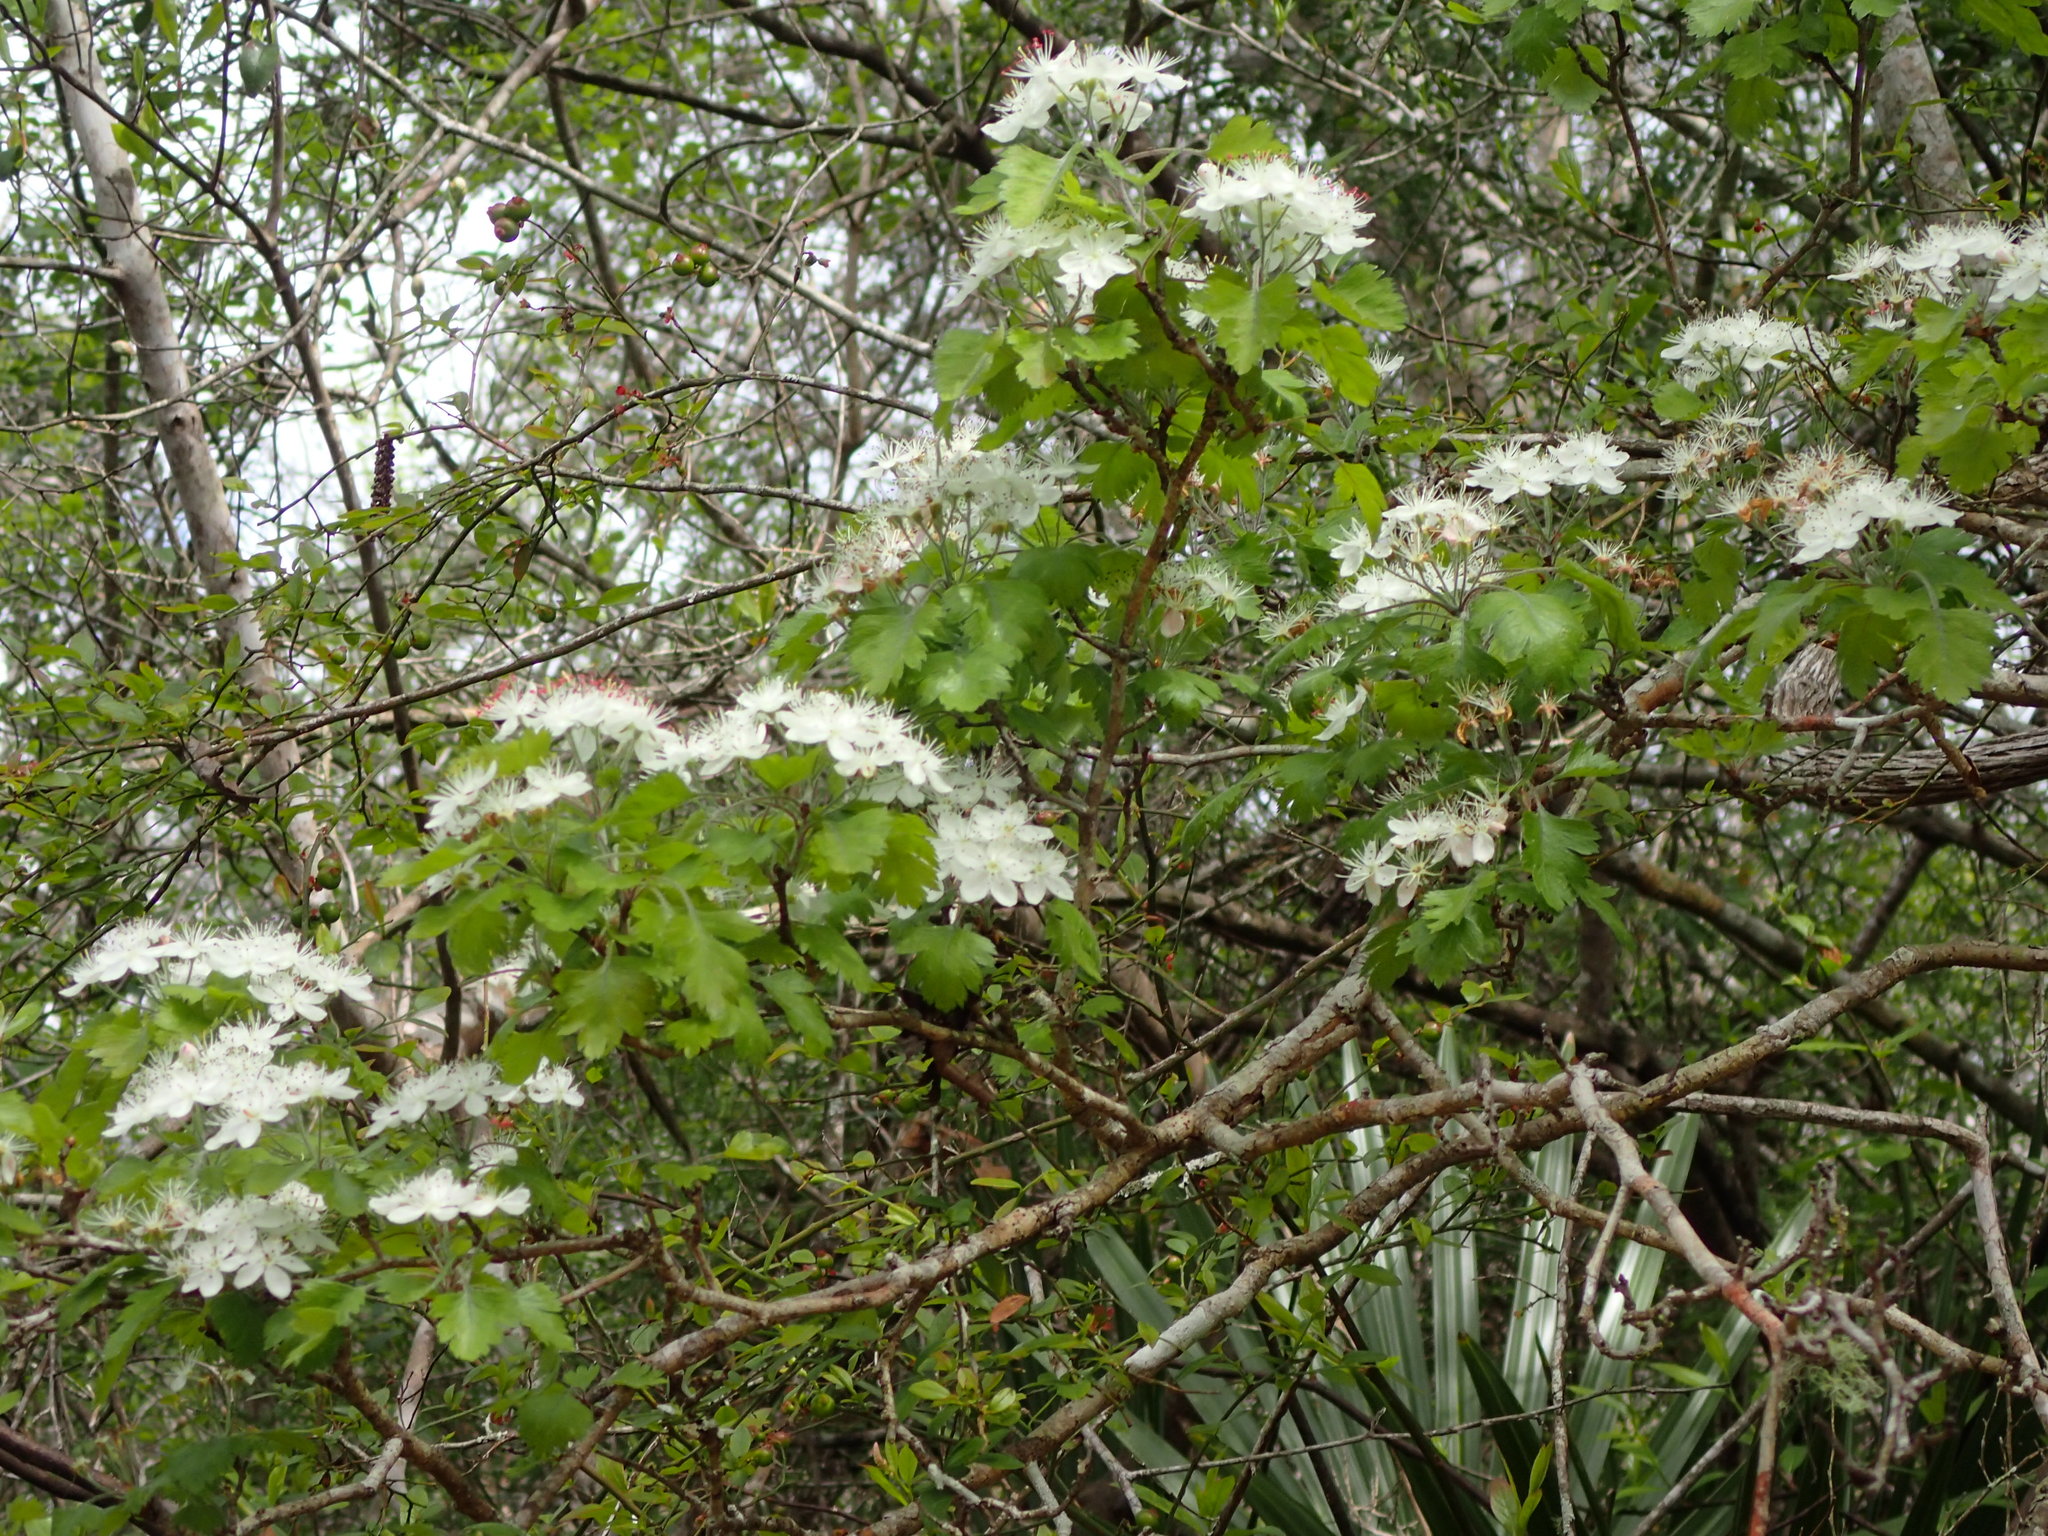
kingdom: Plantae
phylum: Tracheophyta
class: Magnoliopsida
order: Rosales
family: Rosaceae
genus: Crataegus
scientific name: Crataegus marshallii
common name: Parsley-hawthorn
